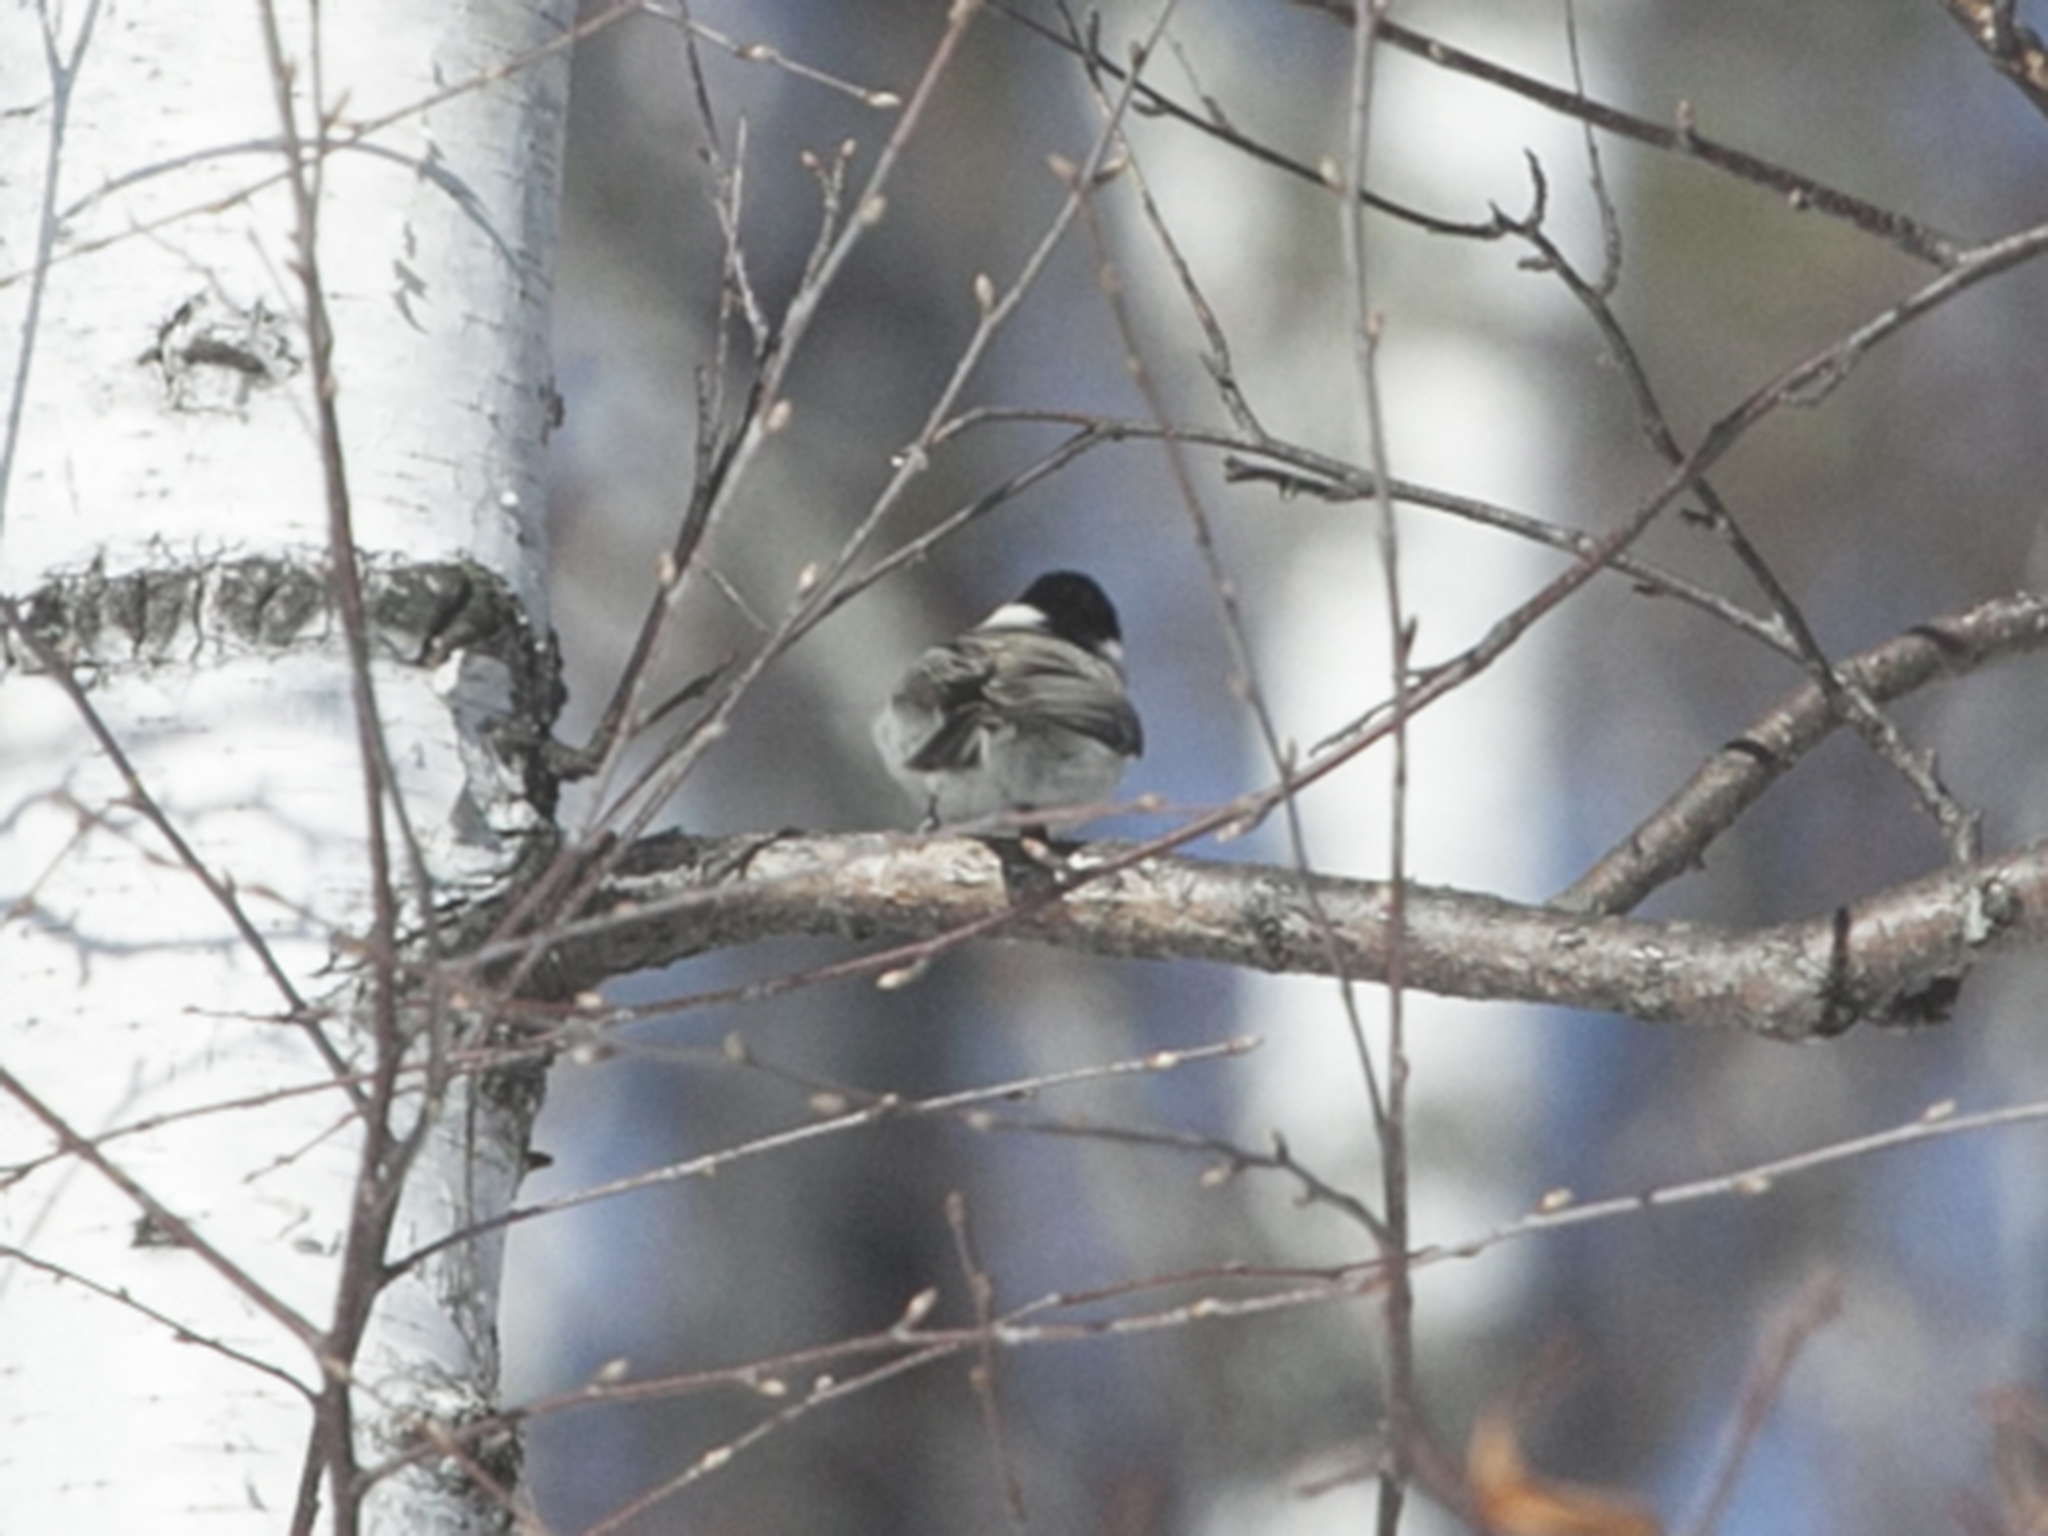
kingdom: Animalia
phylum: Chordata
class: Aves
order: Passeriformes
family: Paridae
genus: Poecile
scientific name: Poecile montanus
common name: Willow tit
